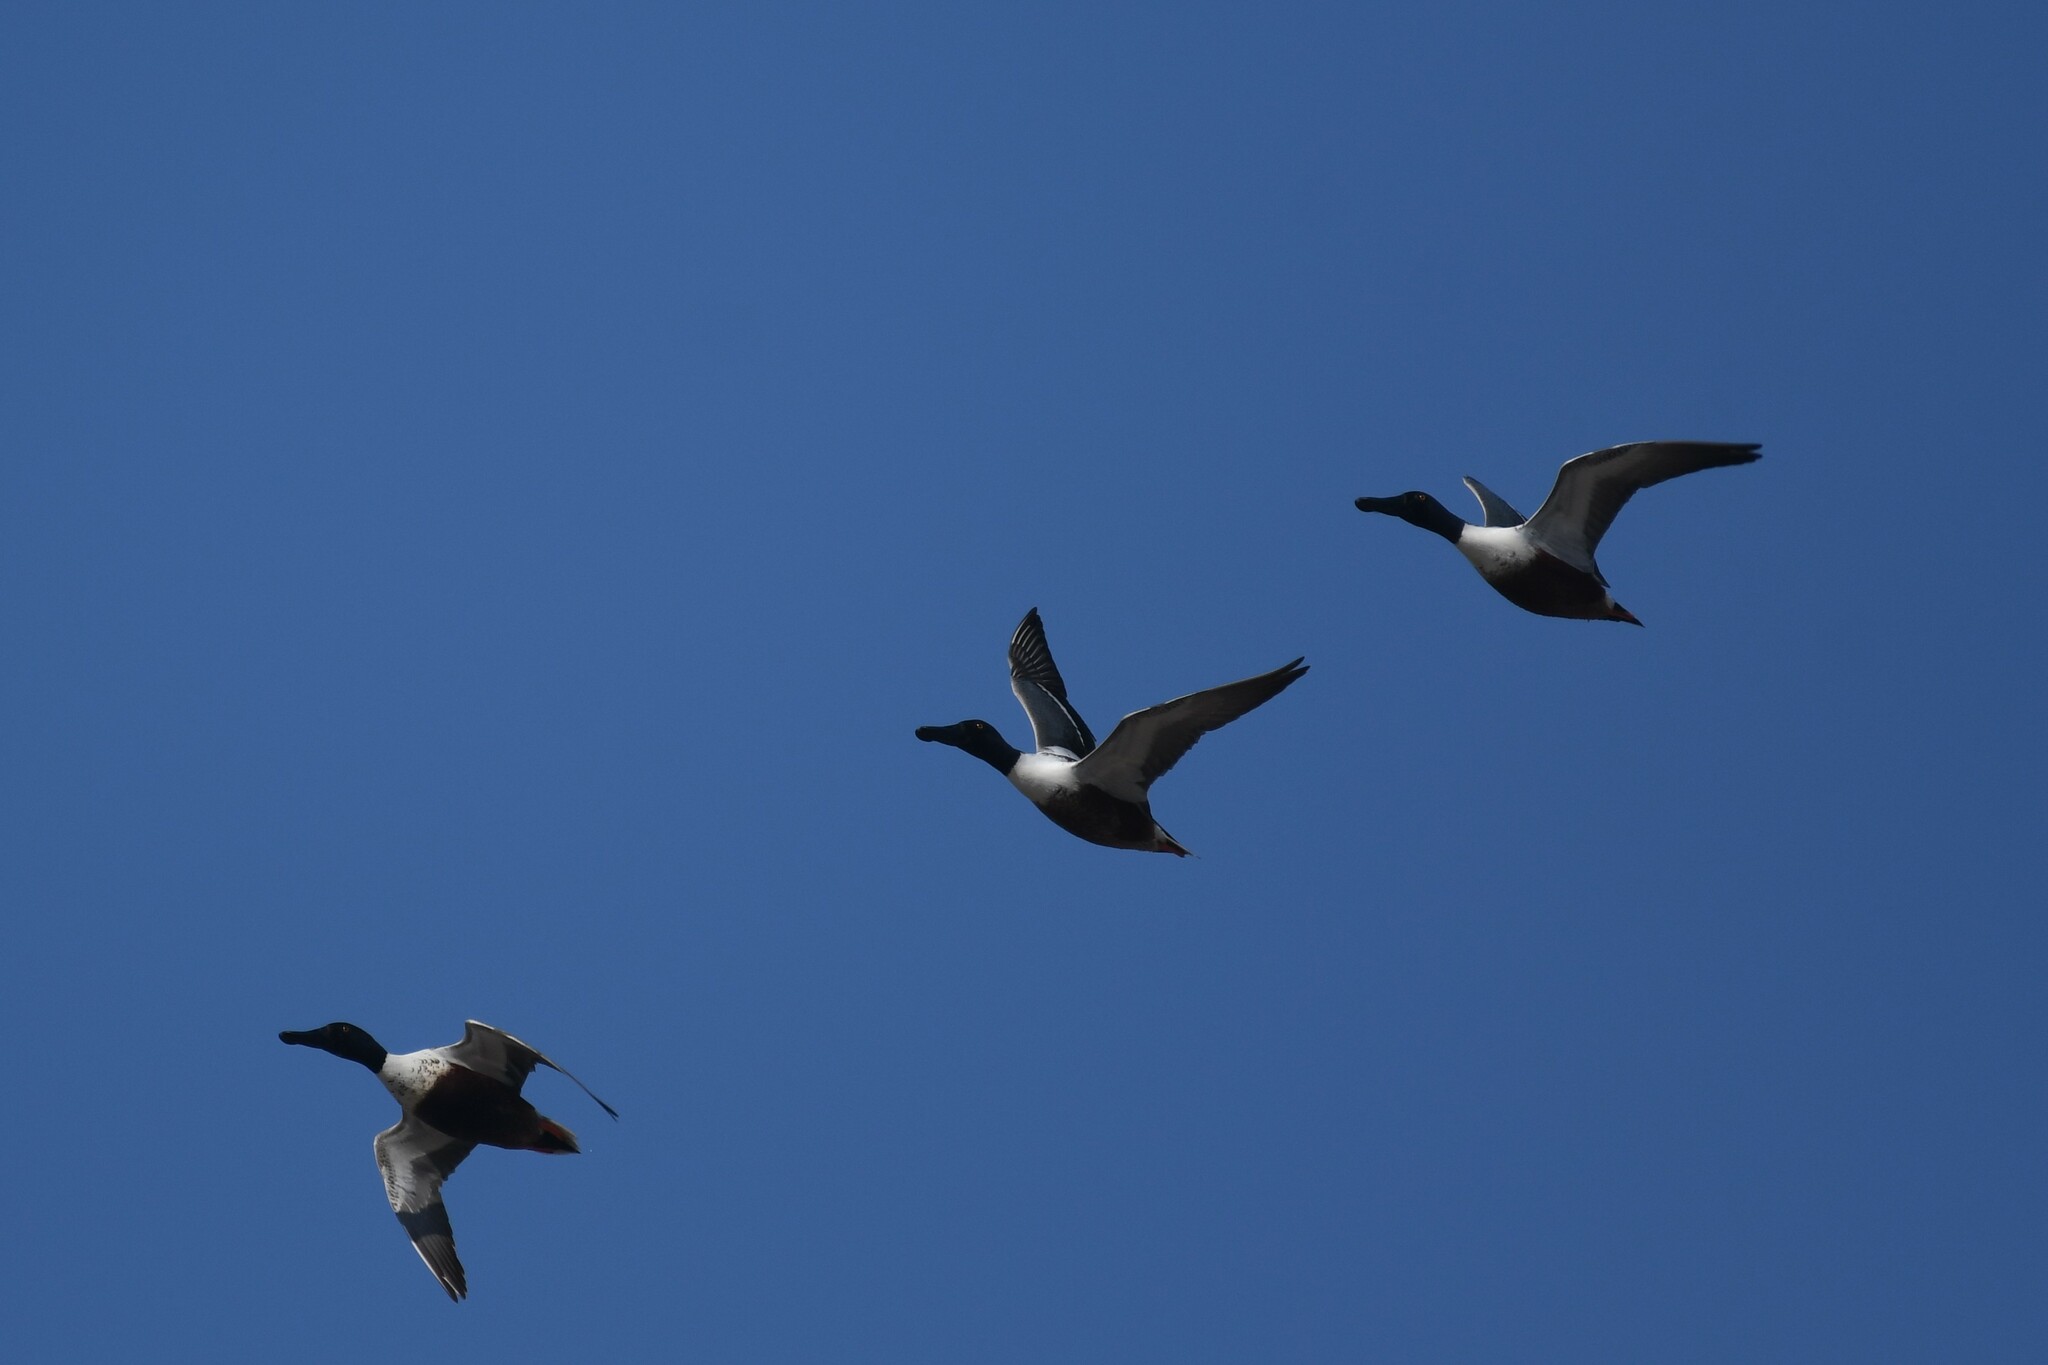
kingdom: Animalia
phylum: Chordata
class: Aves
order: Anseriformes
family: Anatidae
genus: Spatula
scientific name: Spatula clypeata
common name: Northern shoveler
